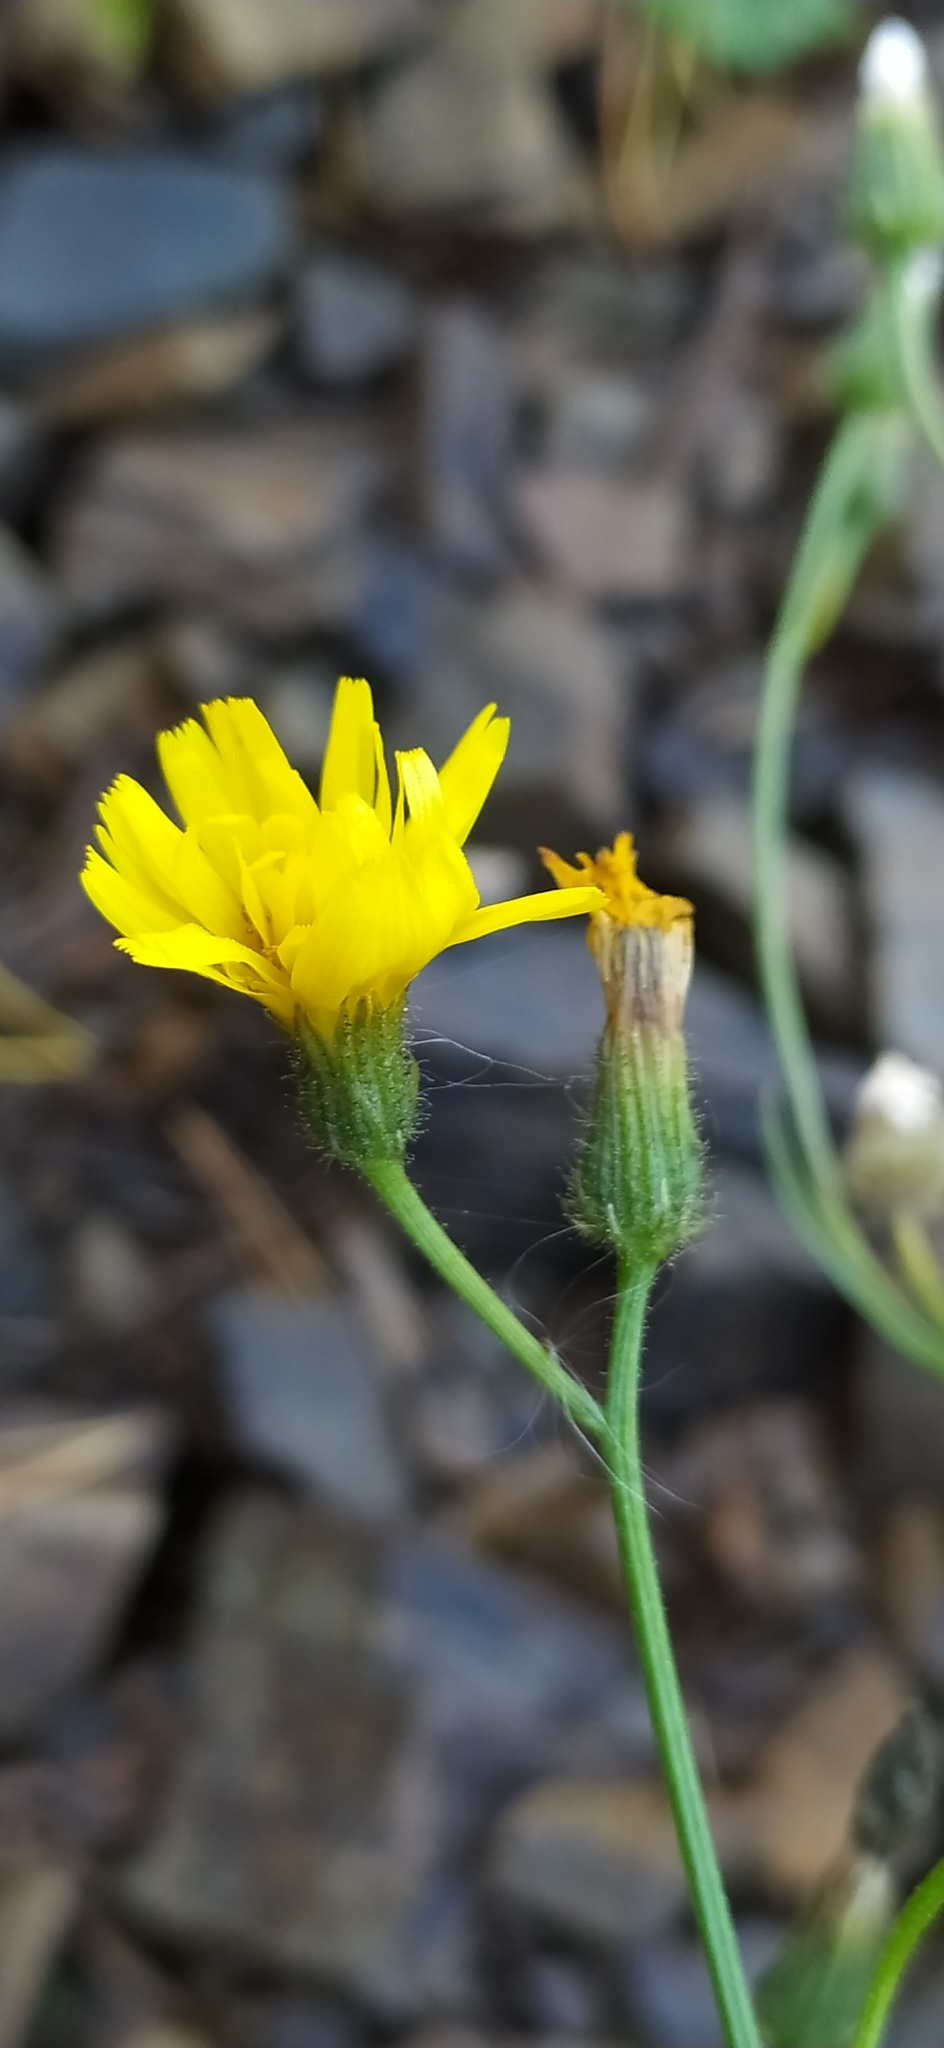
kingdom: Plantae
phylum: Tracheophyta
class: Magnoliopsida
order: Asterales
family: Asteraceae
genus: Crepis
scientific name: Crepis tectorum
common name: Narrow-leaved hawk's-beard
